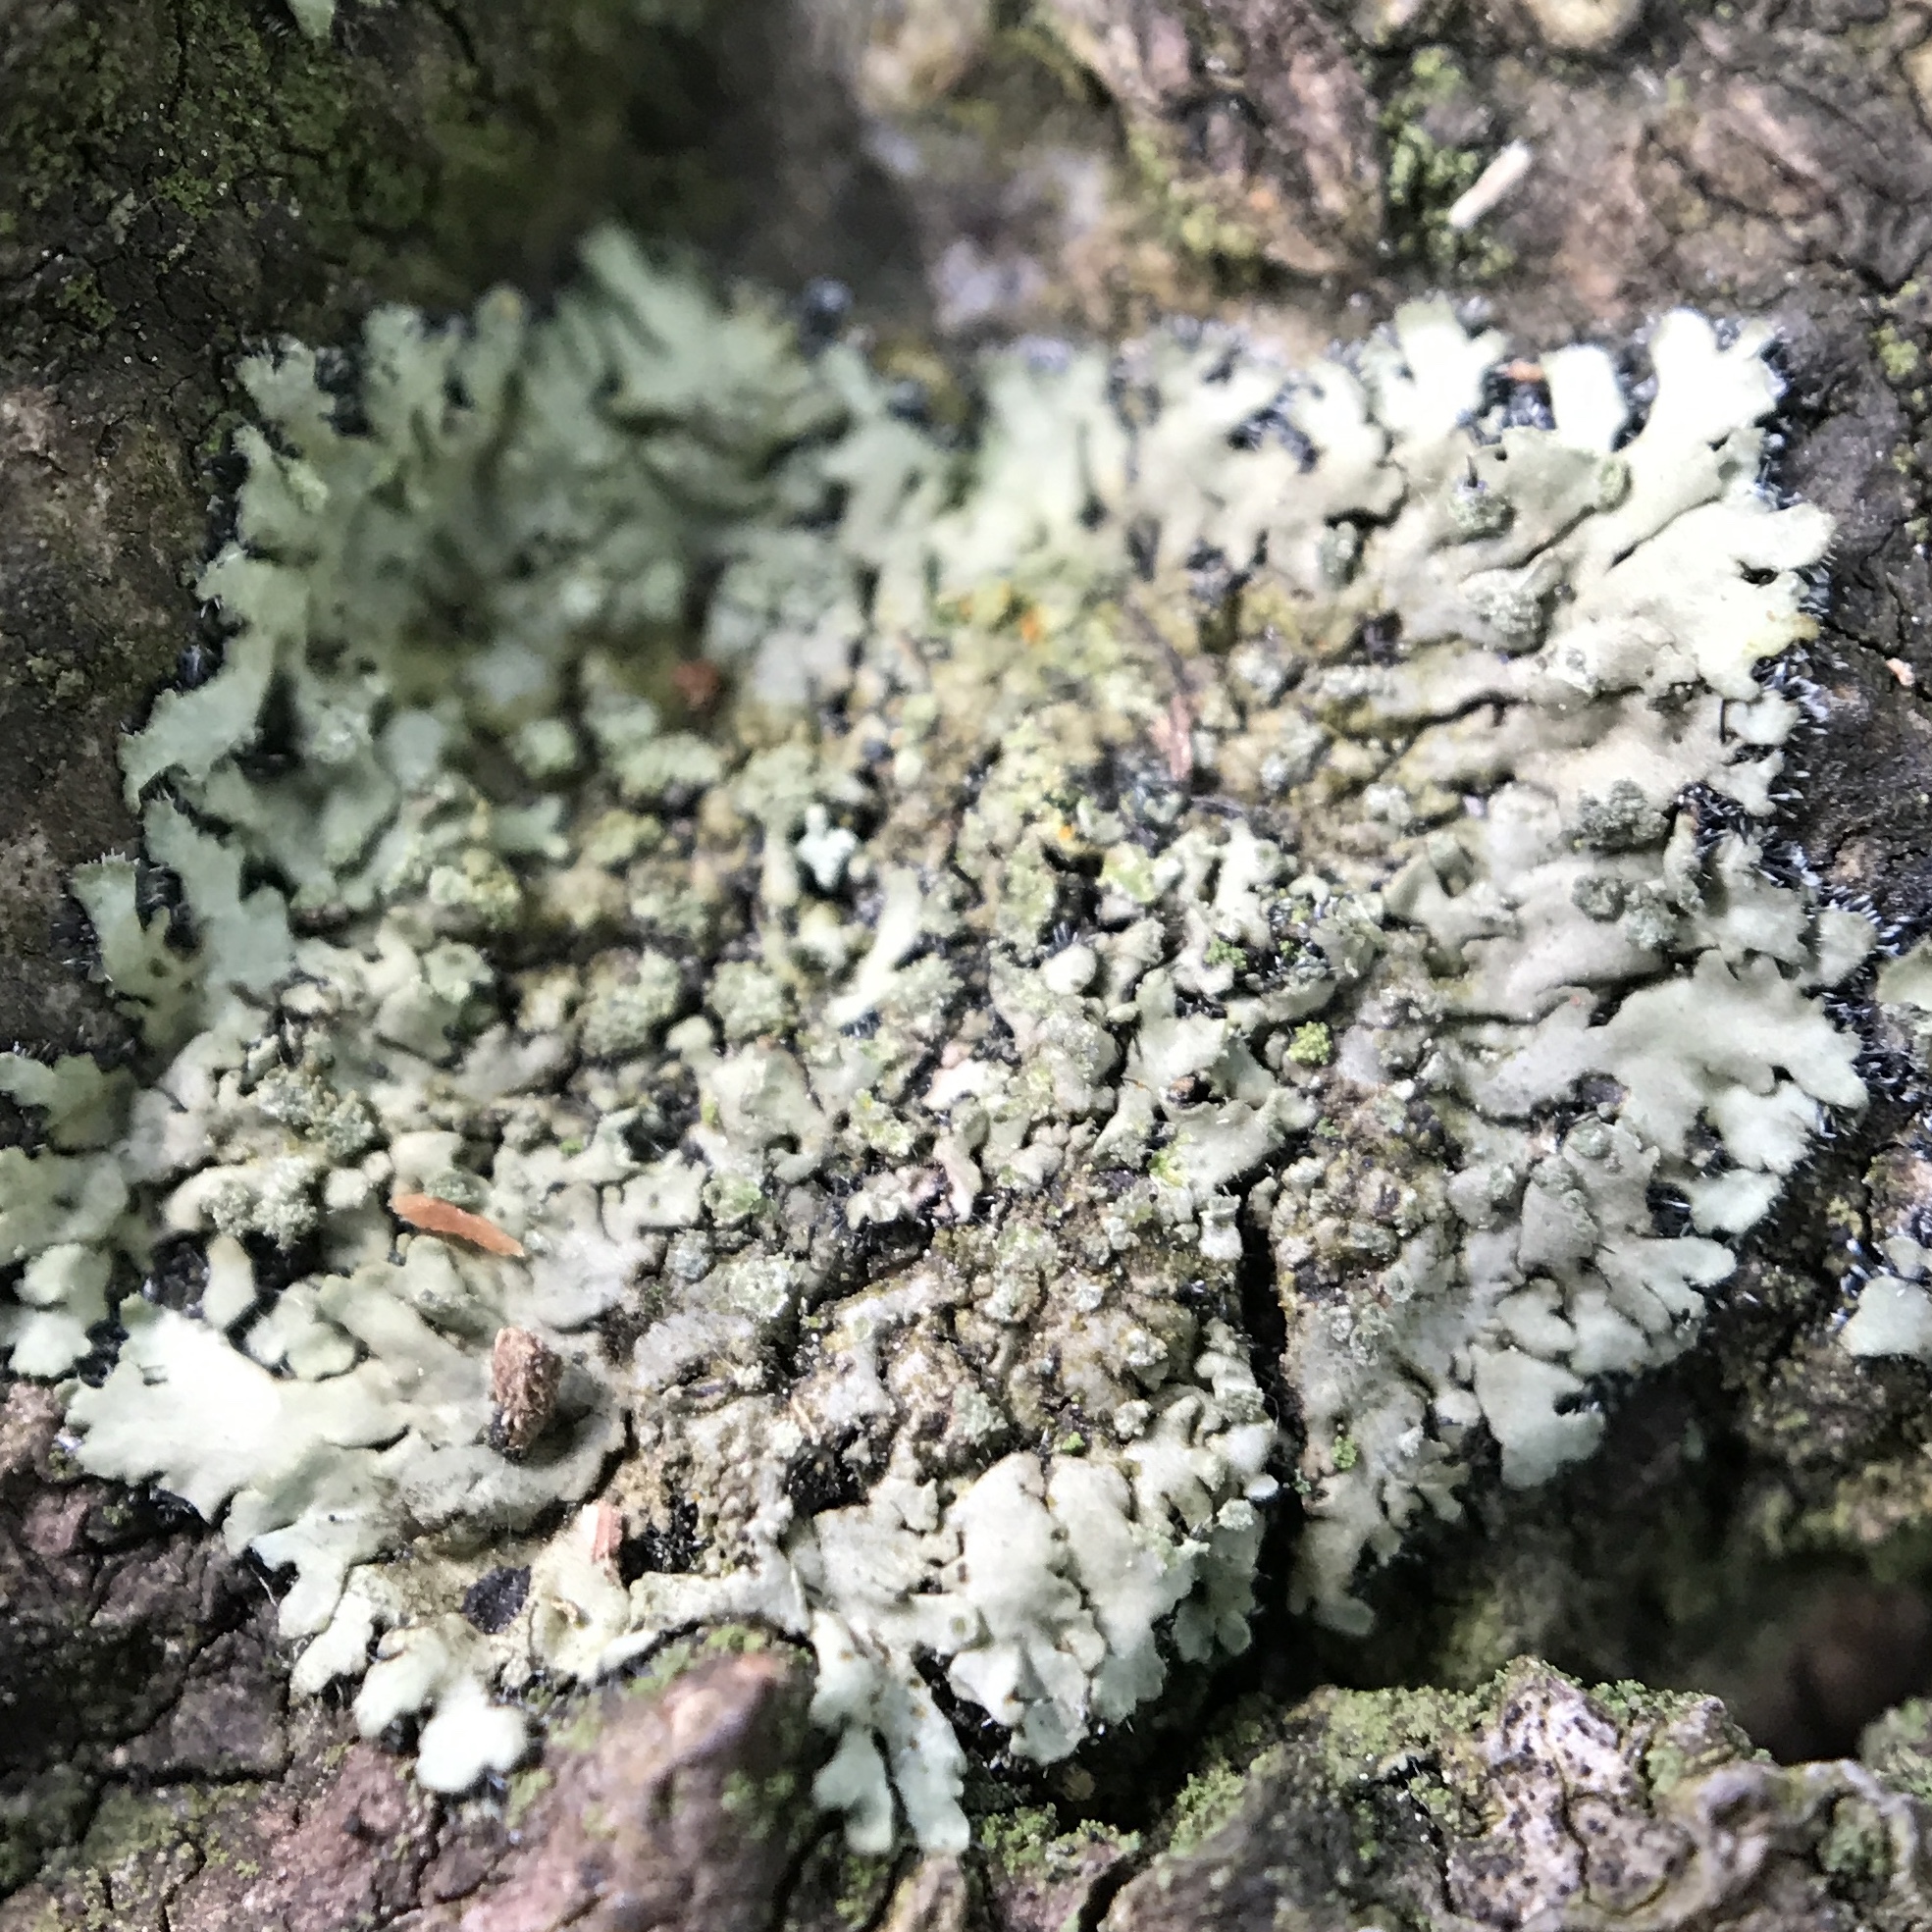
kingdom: Fungi
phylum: Ascomycota
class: Lecanoromycetes
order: Caliciales
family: Physciaceae
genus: Phaeophyscia
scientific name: Phaeophyscia rubropulchra
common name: Orange-cored shadow lichen
